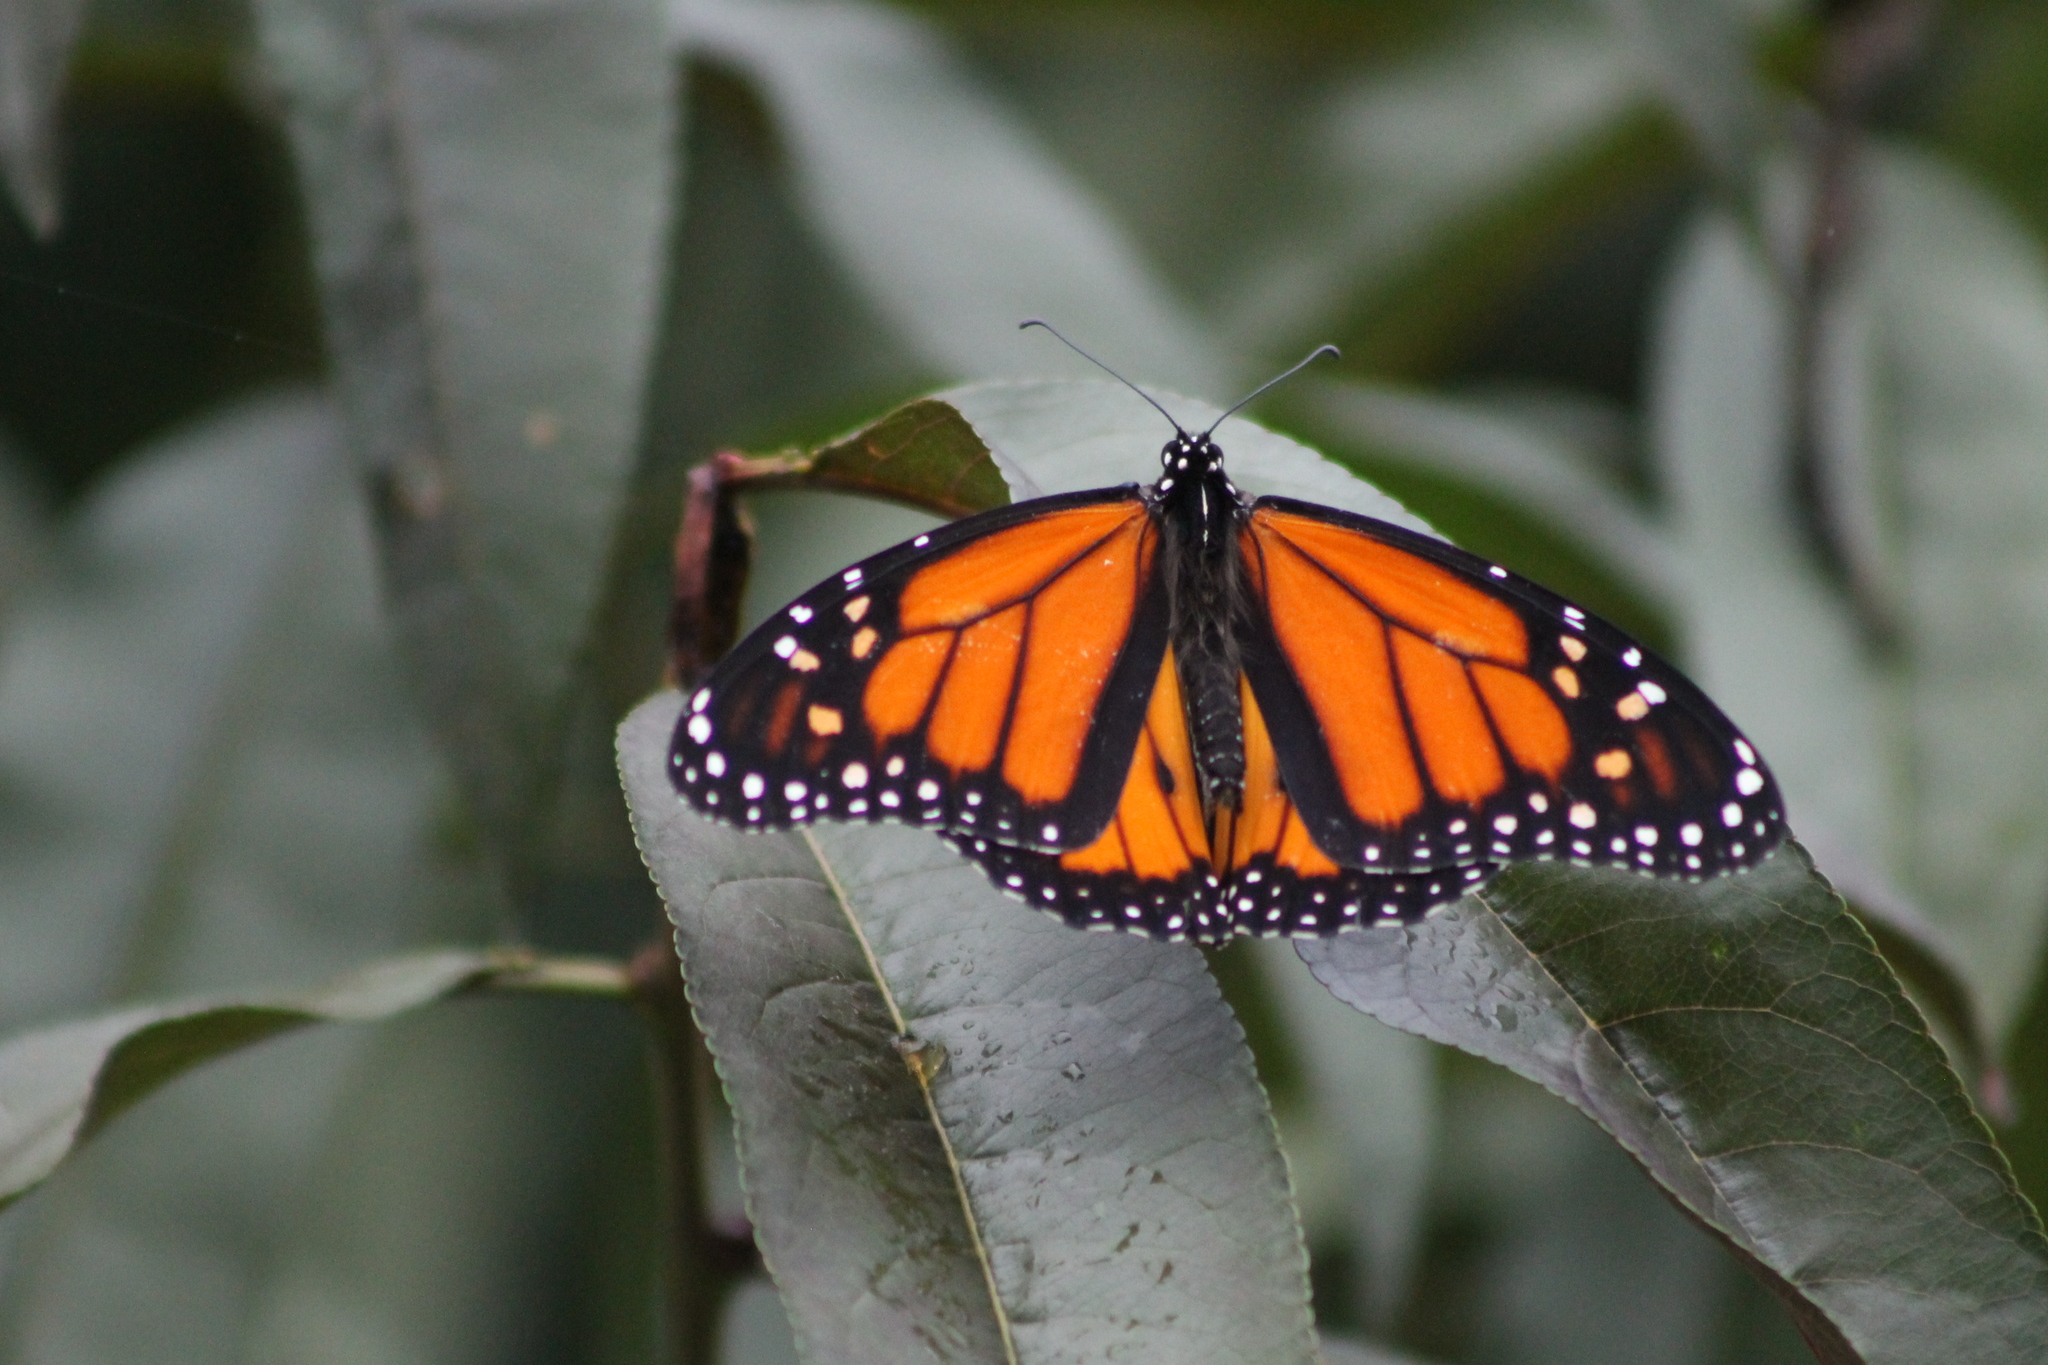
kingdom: Animalia
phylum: Arthropoda
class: Insecta
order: Lepidoptera
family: Nymphalidae
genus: Danaus
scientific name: Danaus plexippus
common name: Monarch
